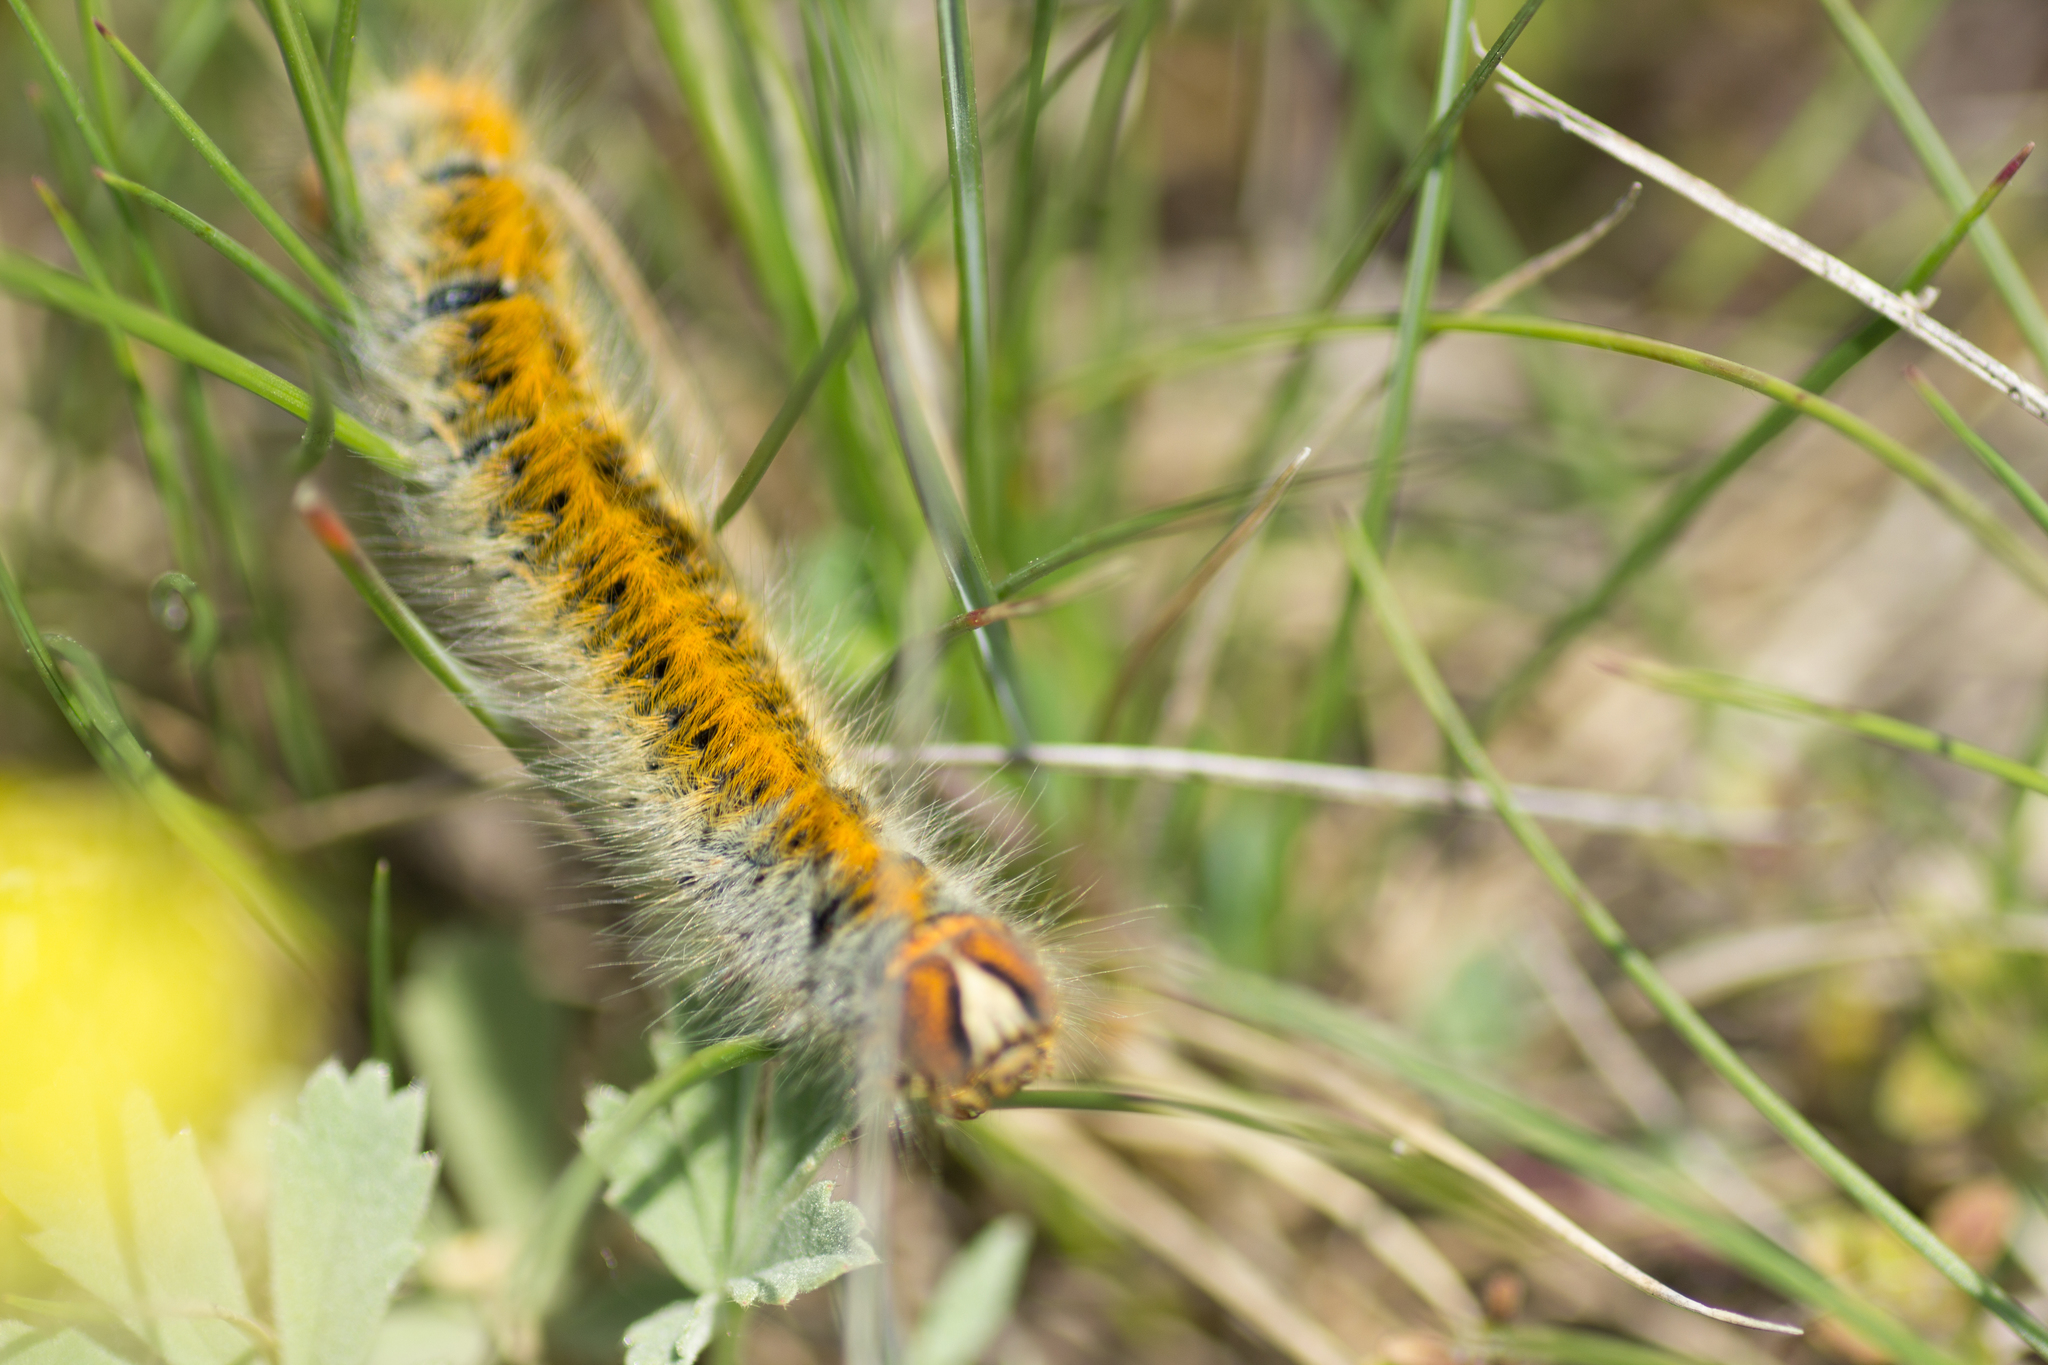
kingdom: Animalia
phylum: Arthropoda
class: Insecta
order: Lepidoptera
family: Lasiocampidae
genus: Lasiocampa
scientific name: Lasiocampa trifolii
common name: Grass eggar
